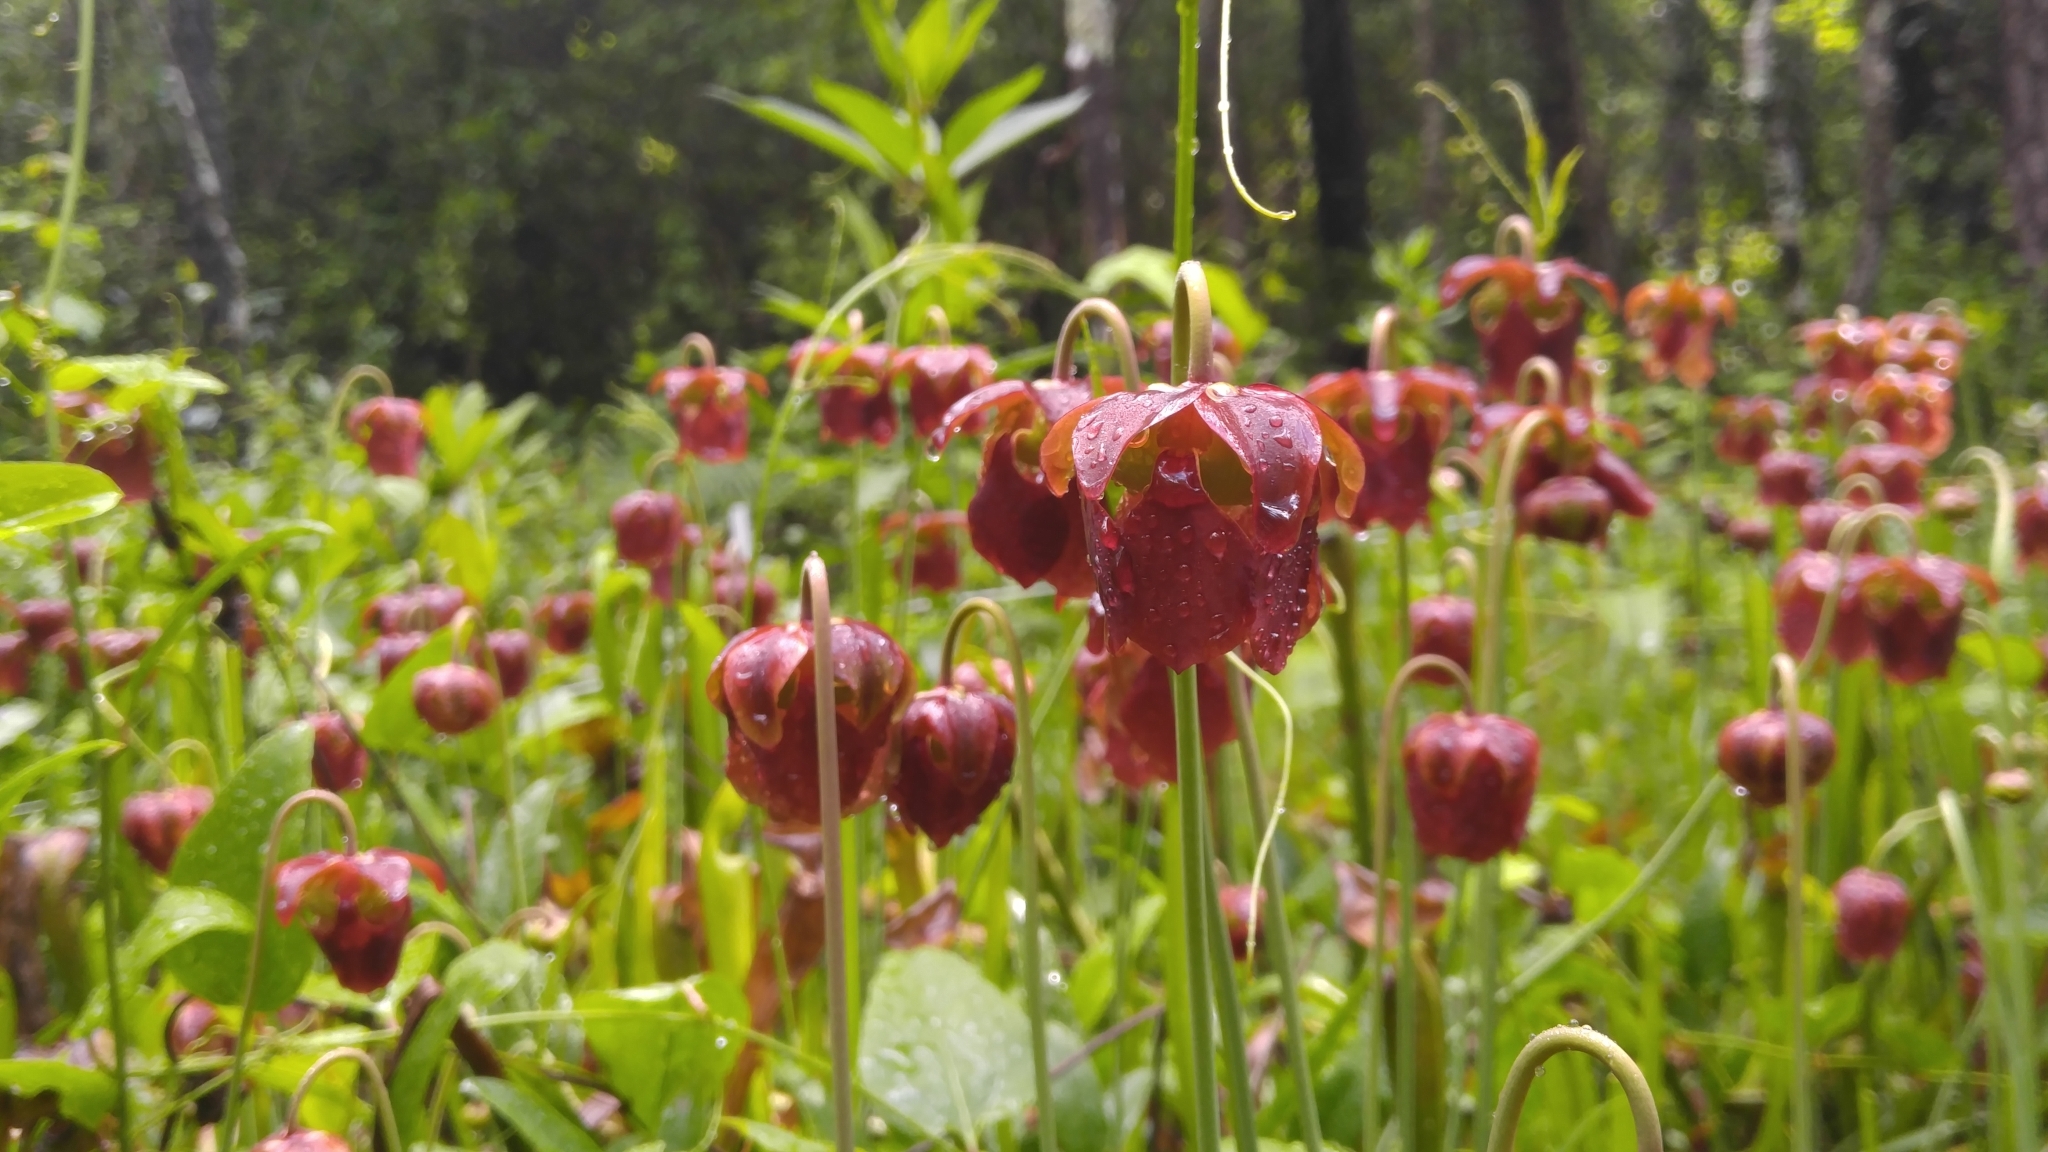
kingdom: Plantae
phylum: Tracheophyta
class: Magnoliopsida
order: Ericales
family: Sarraceniaceae
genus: Sarracenia
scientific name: Sarracenia jonesii
